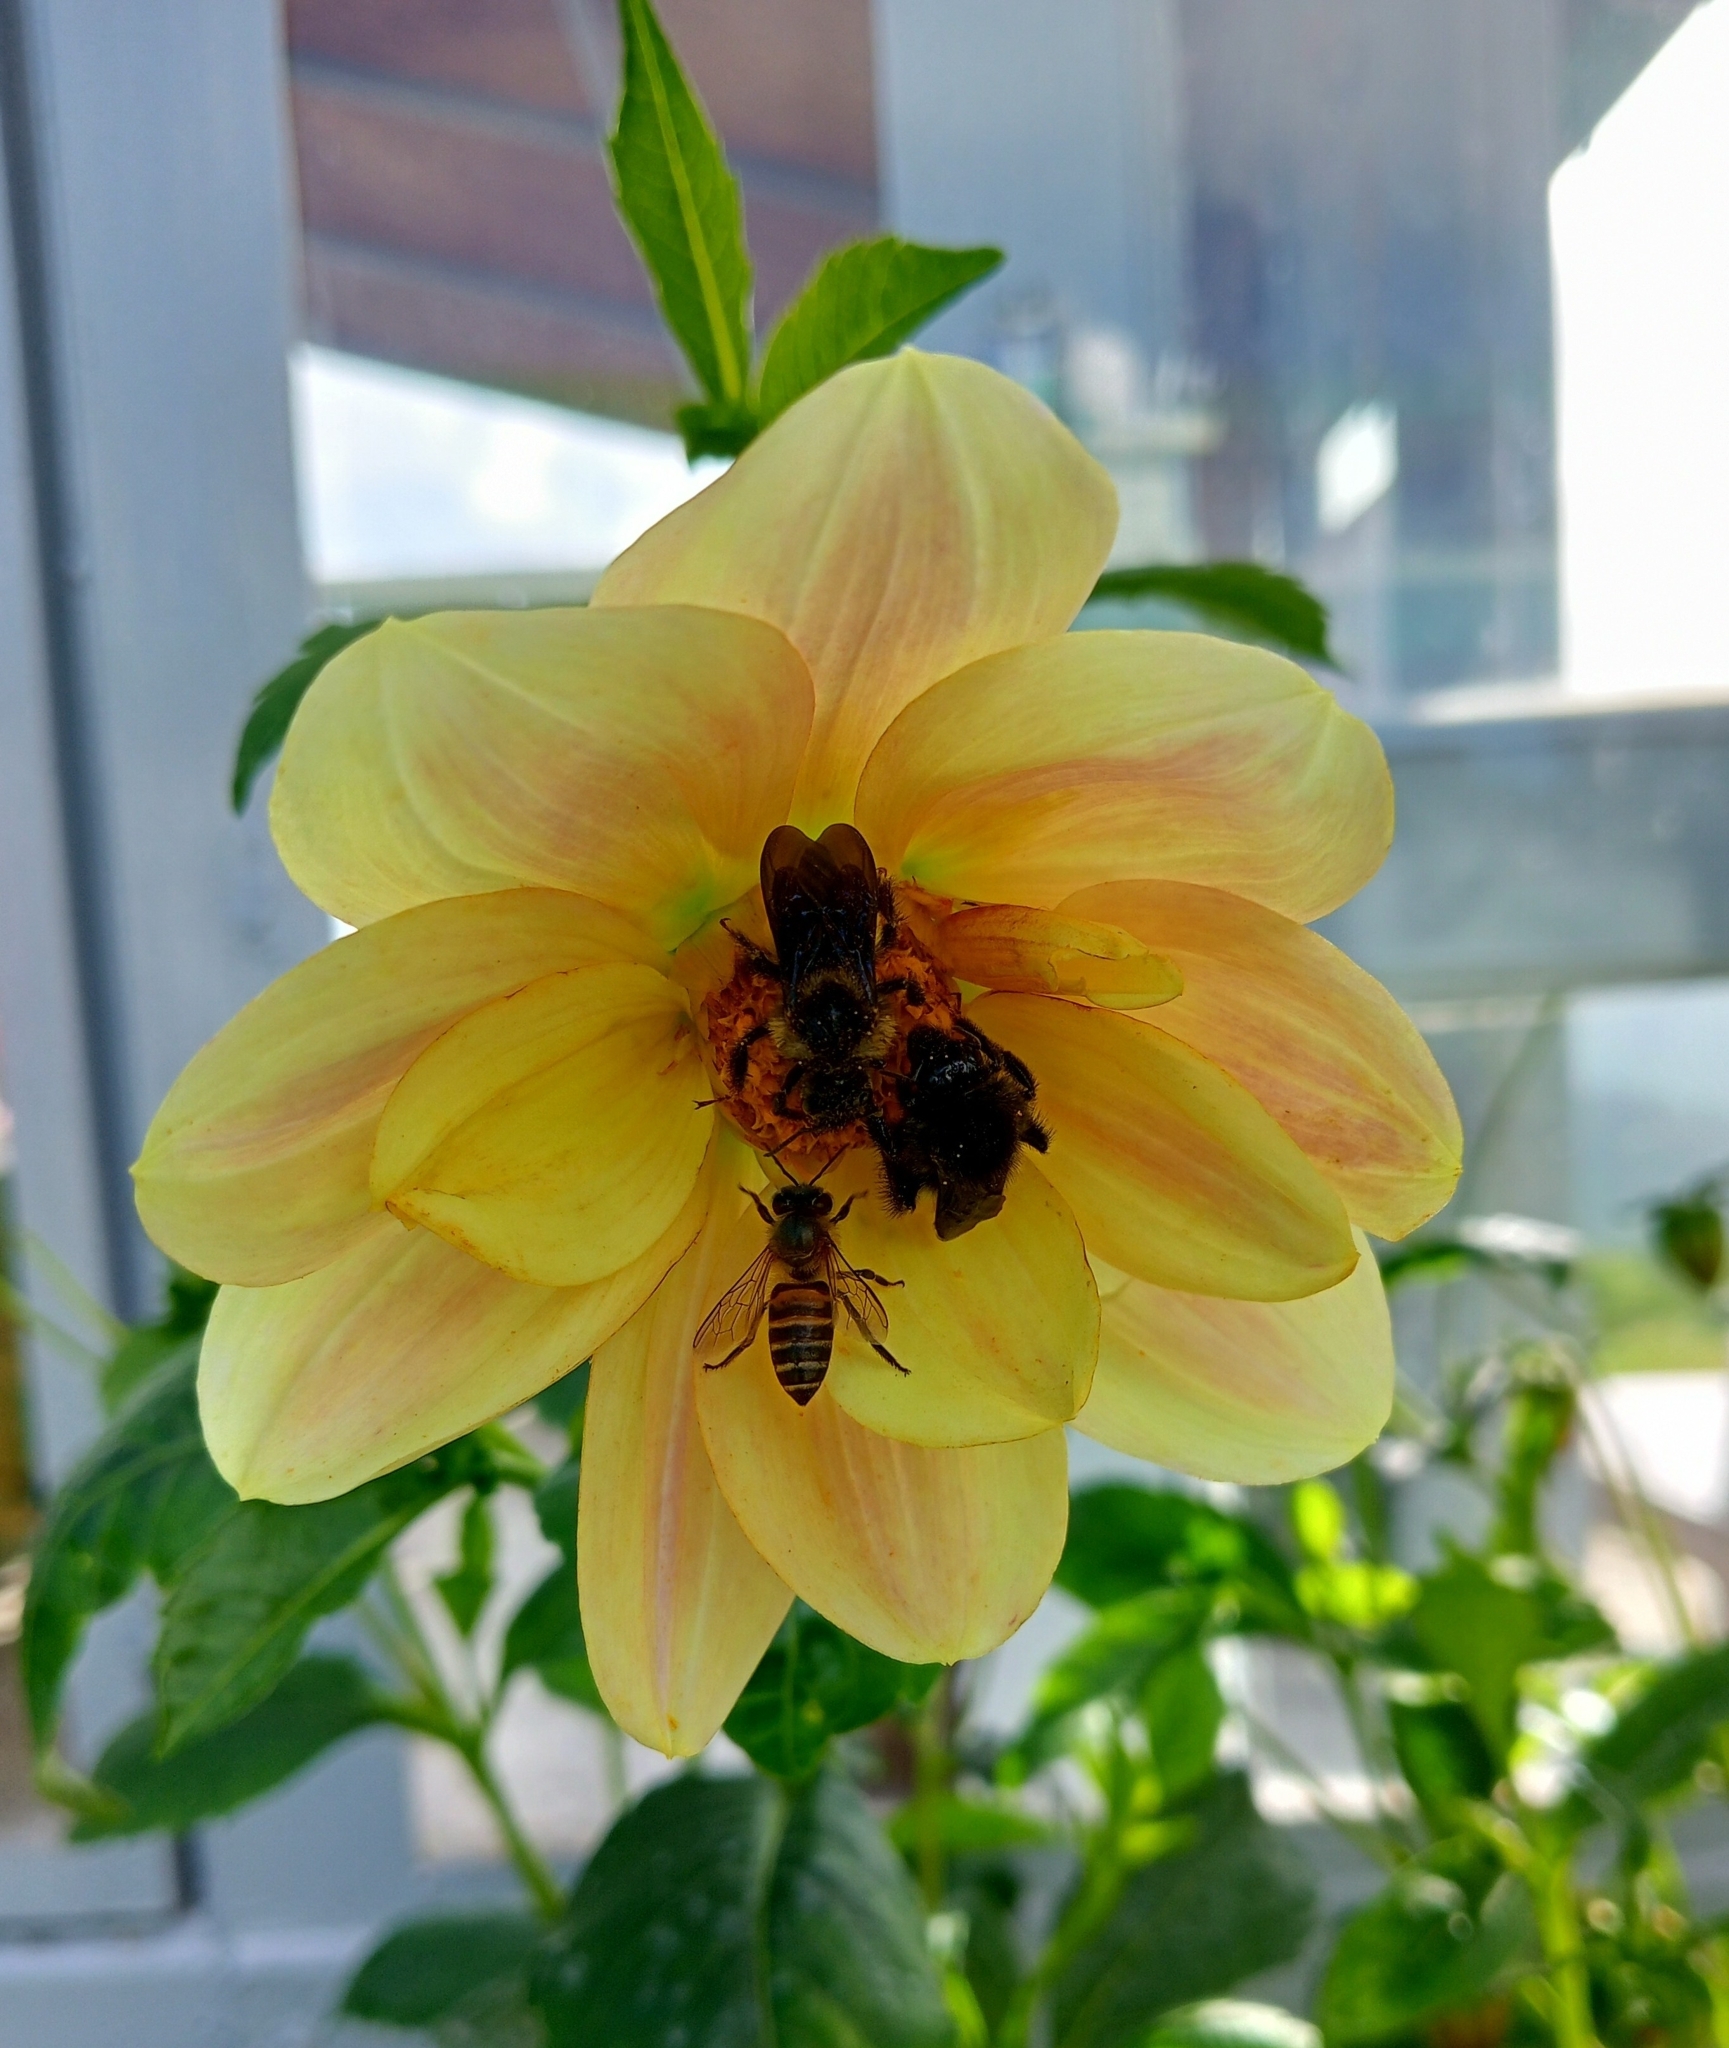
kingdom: Animalia
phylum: Arthropoda
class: Insecta
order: Hymenoptera
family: Apidae
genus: Apis
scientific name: Apis cerana
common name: Honey bee
